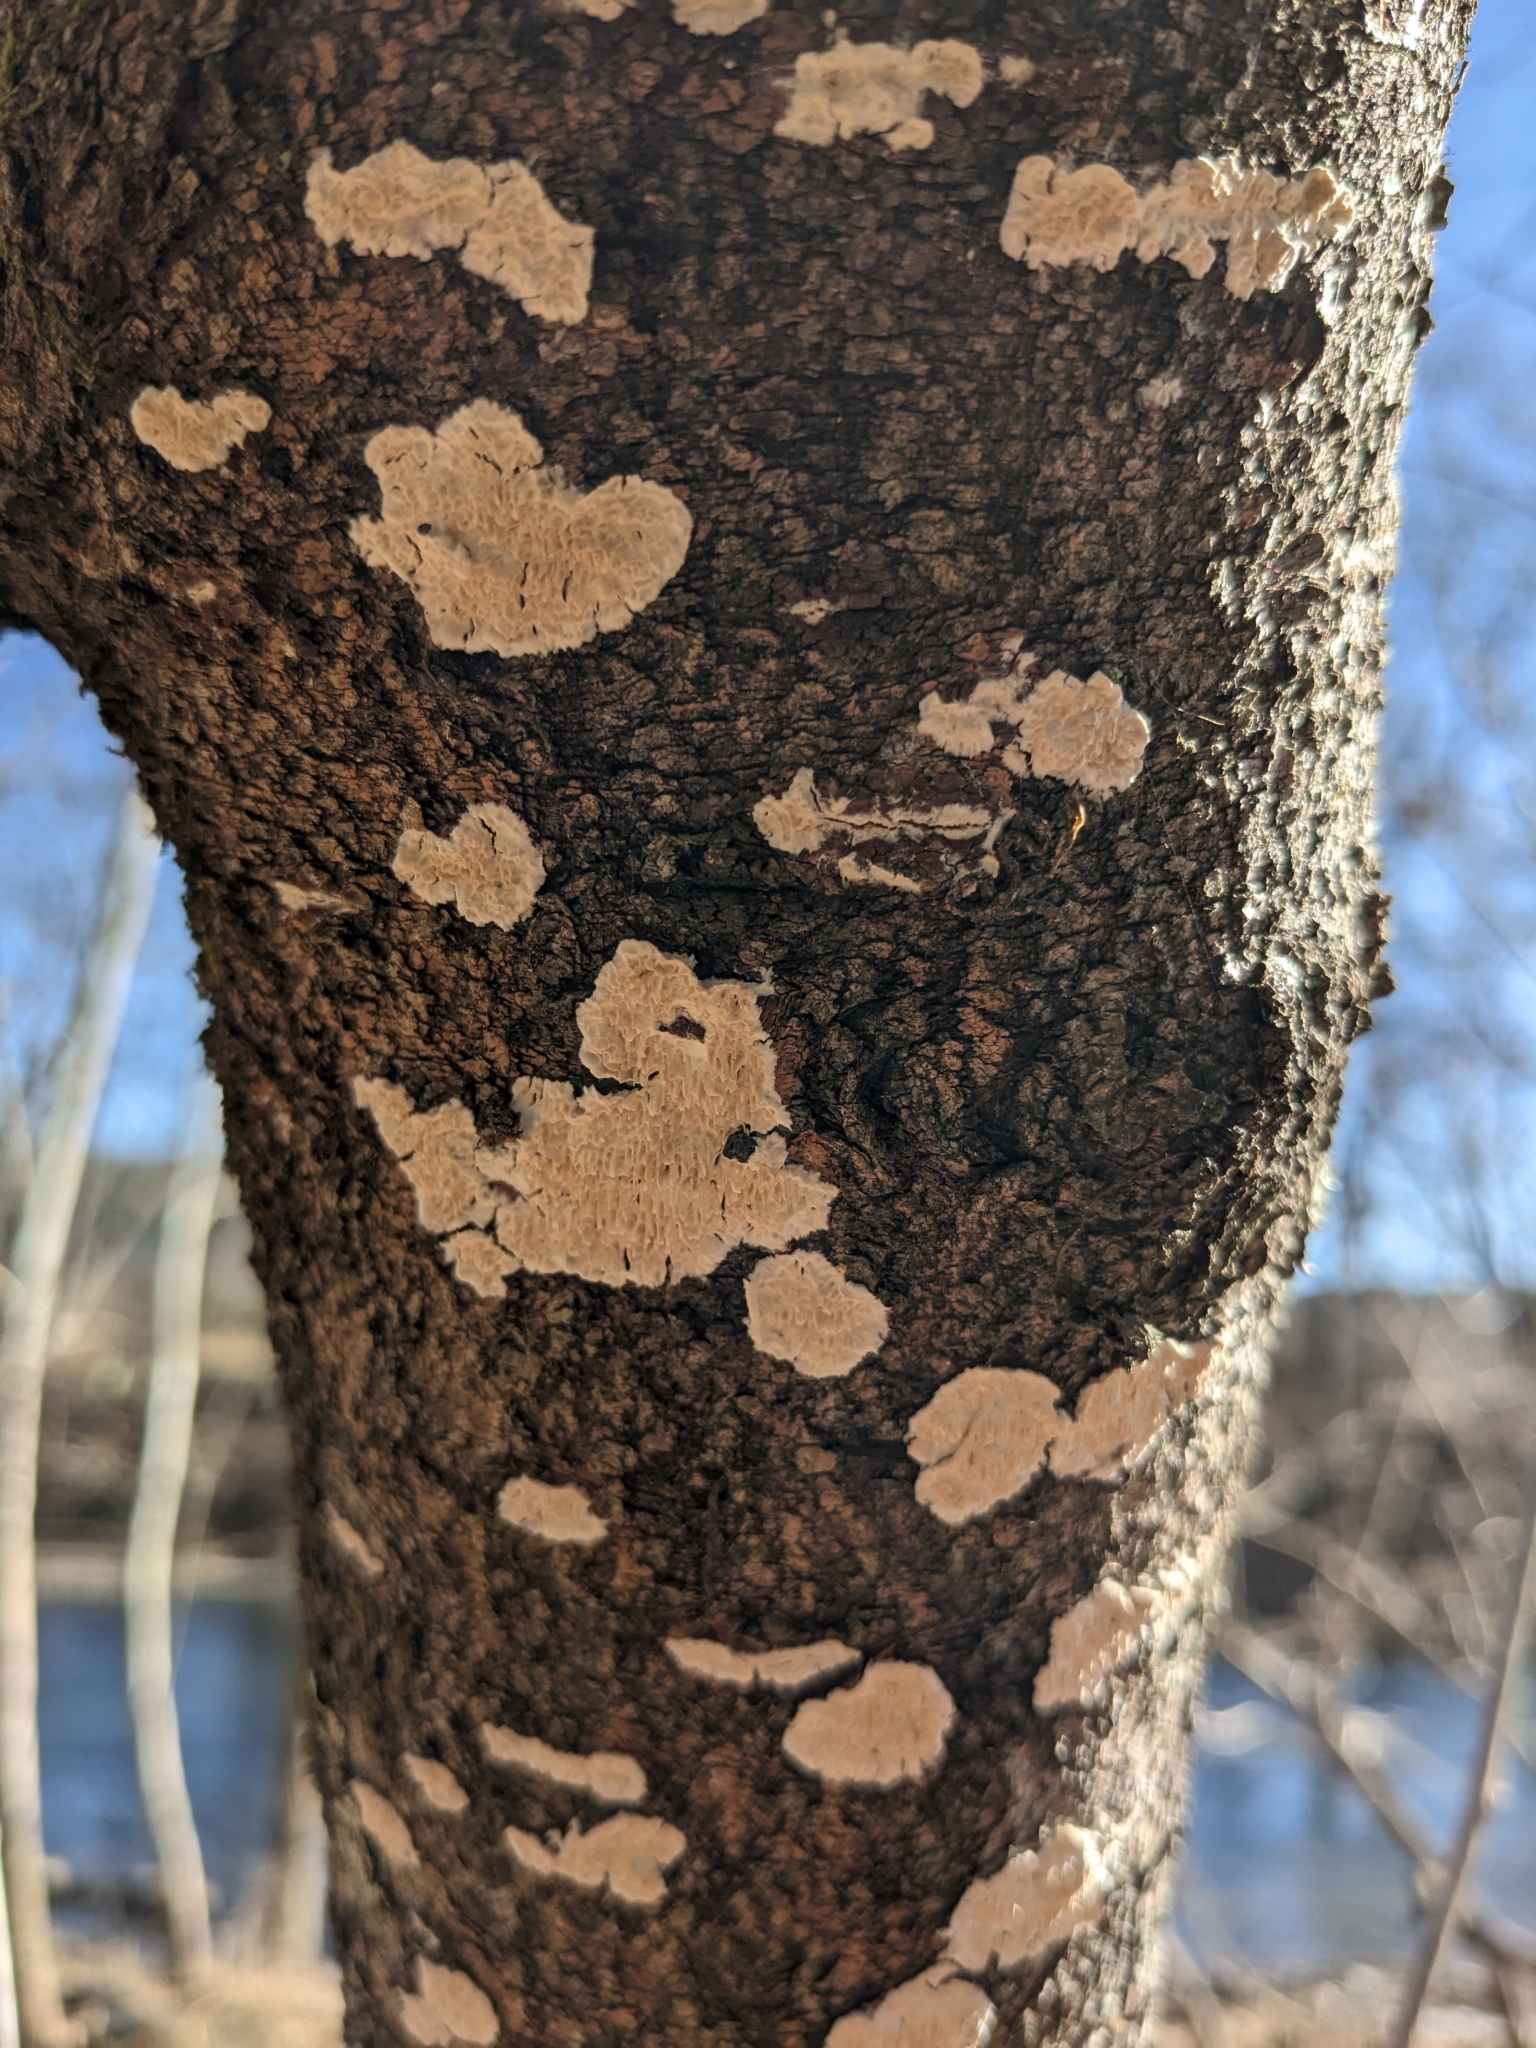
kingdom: Fungi
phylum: Basidiomycota
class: Agaricomycetes
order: Polyporales
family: Irpicaceae
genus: Irpex
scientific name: Irpex lacteus
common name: Milk-white toothed polypore
